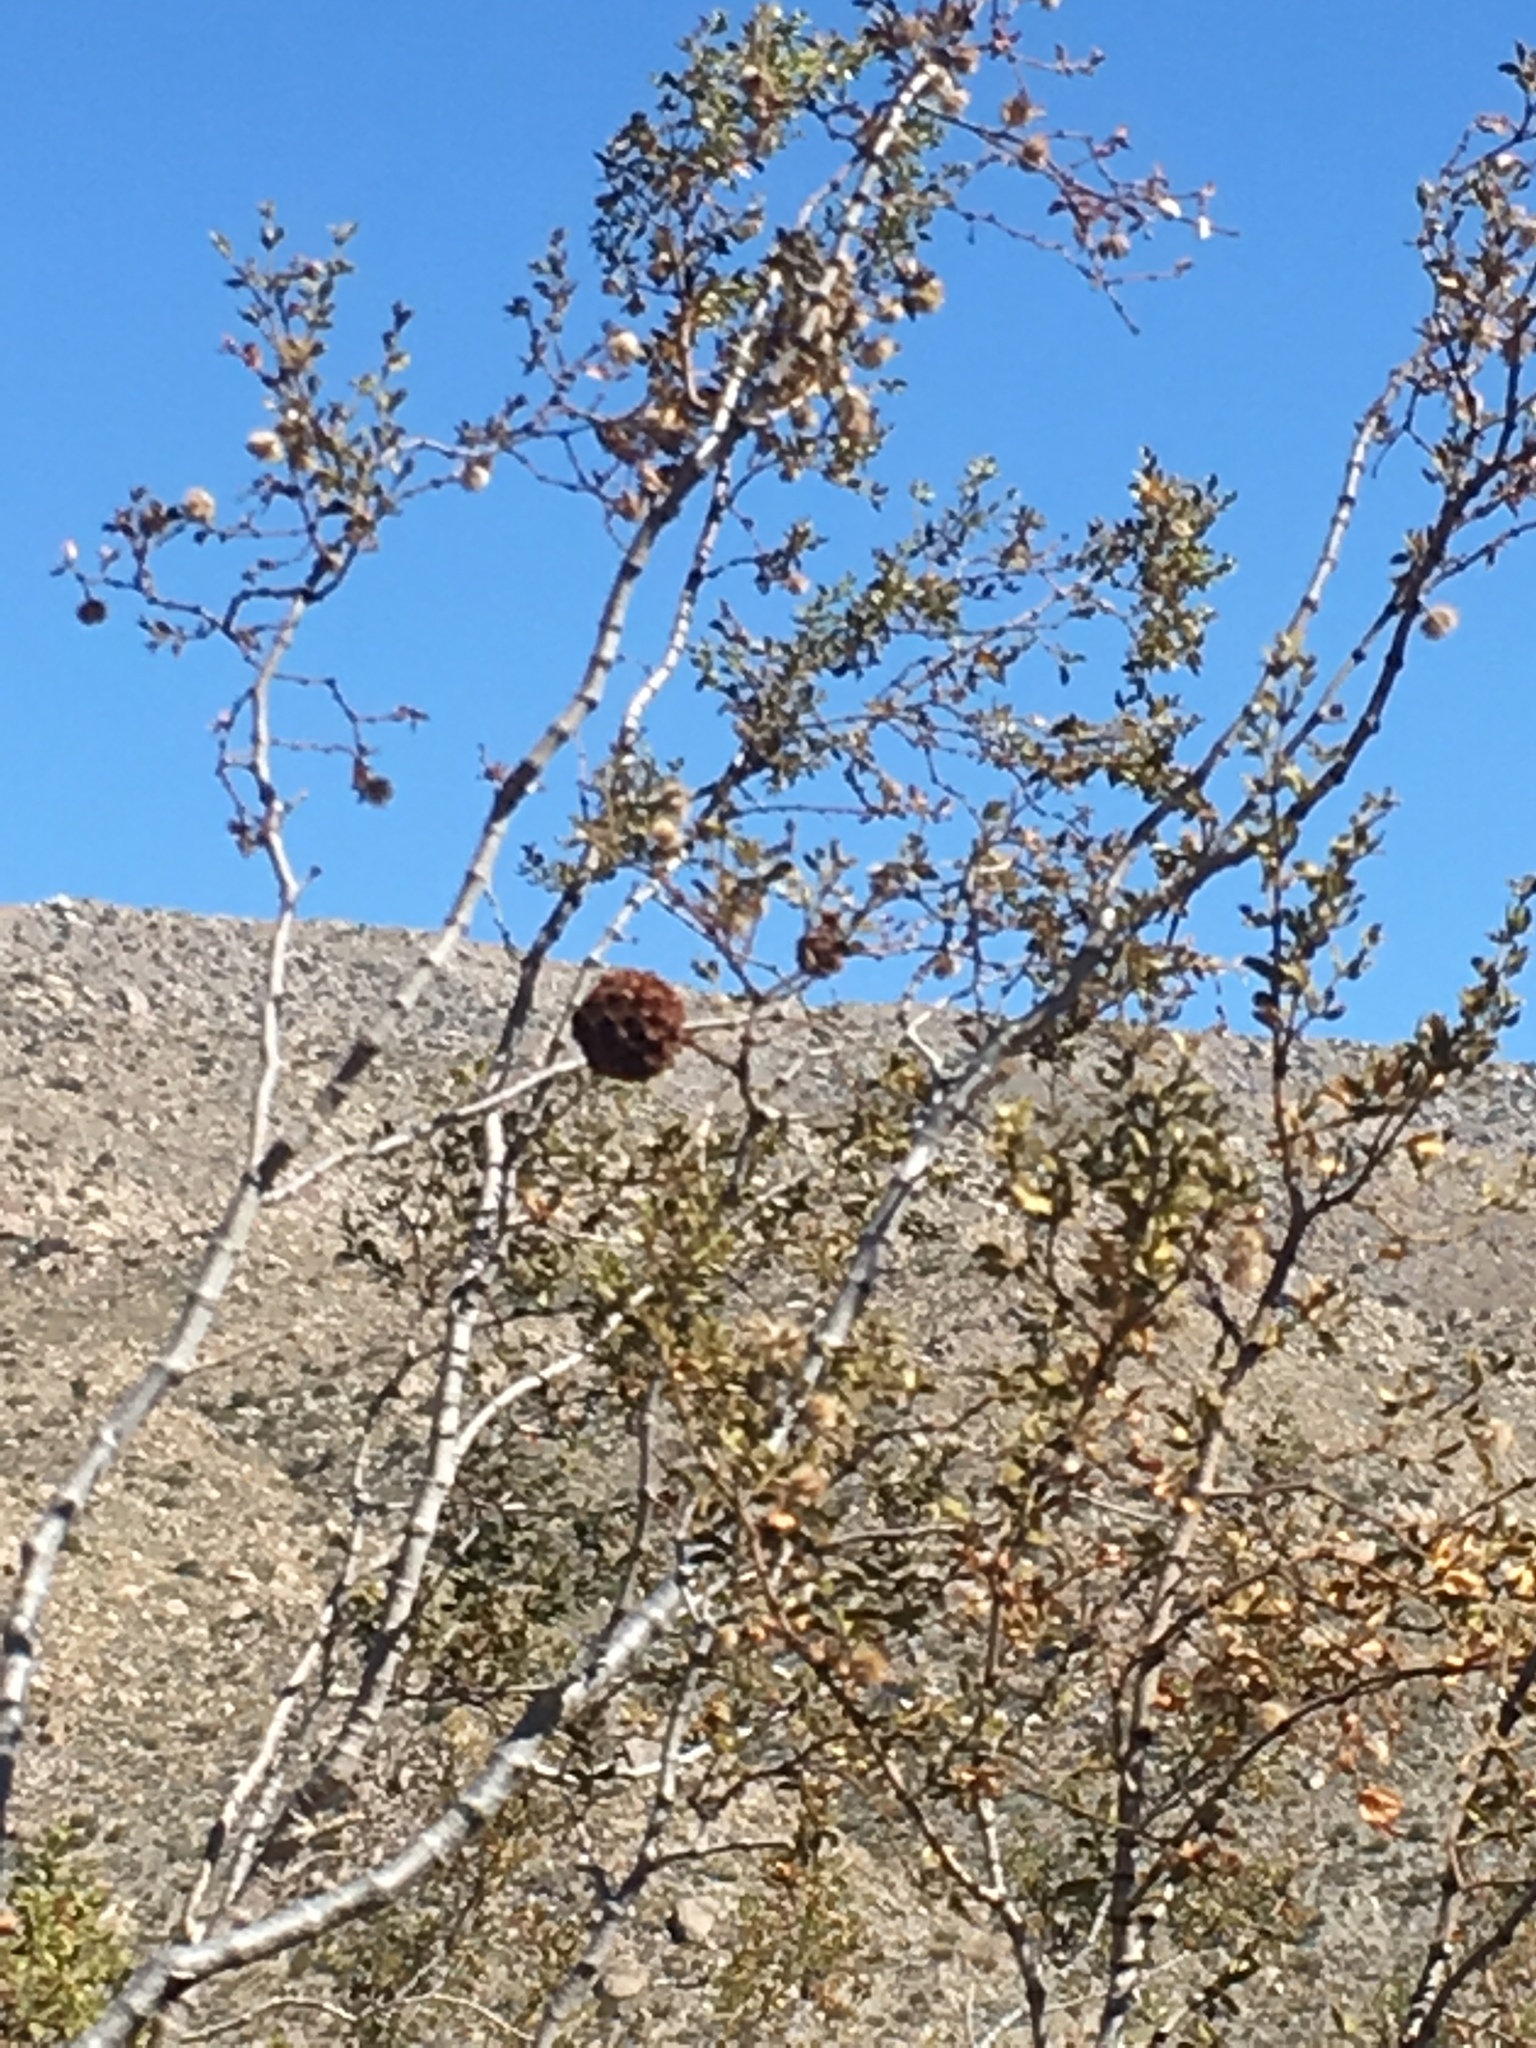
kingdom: Animalia
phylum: Arthropoda
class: Insecta
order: Diptera
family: Cecidomyiidae
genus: Asphondylia
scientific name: Asphondylia auripila
